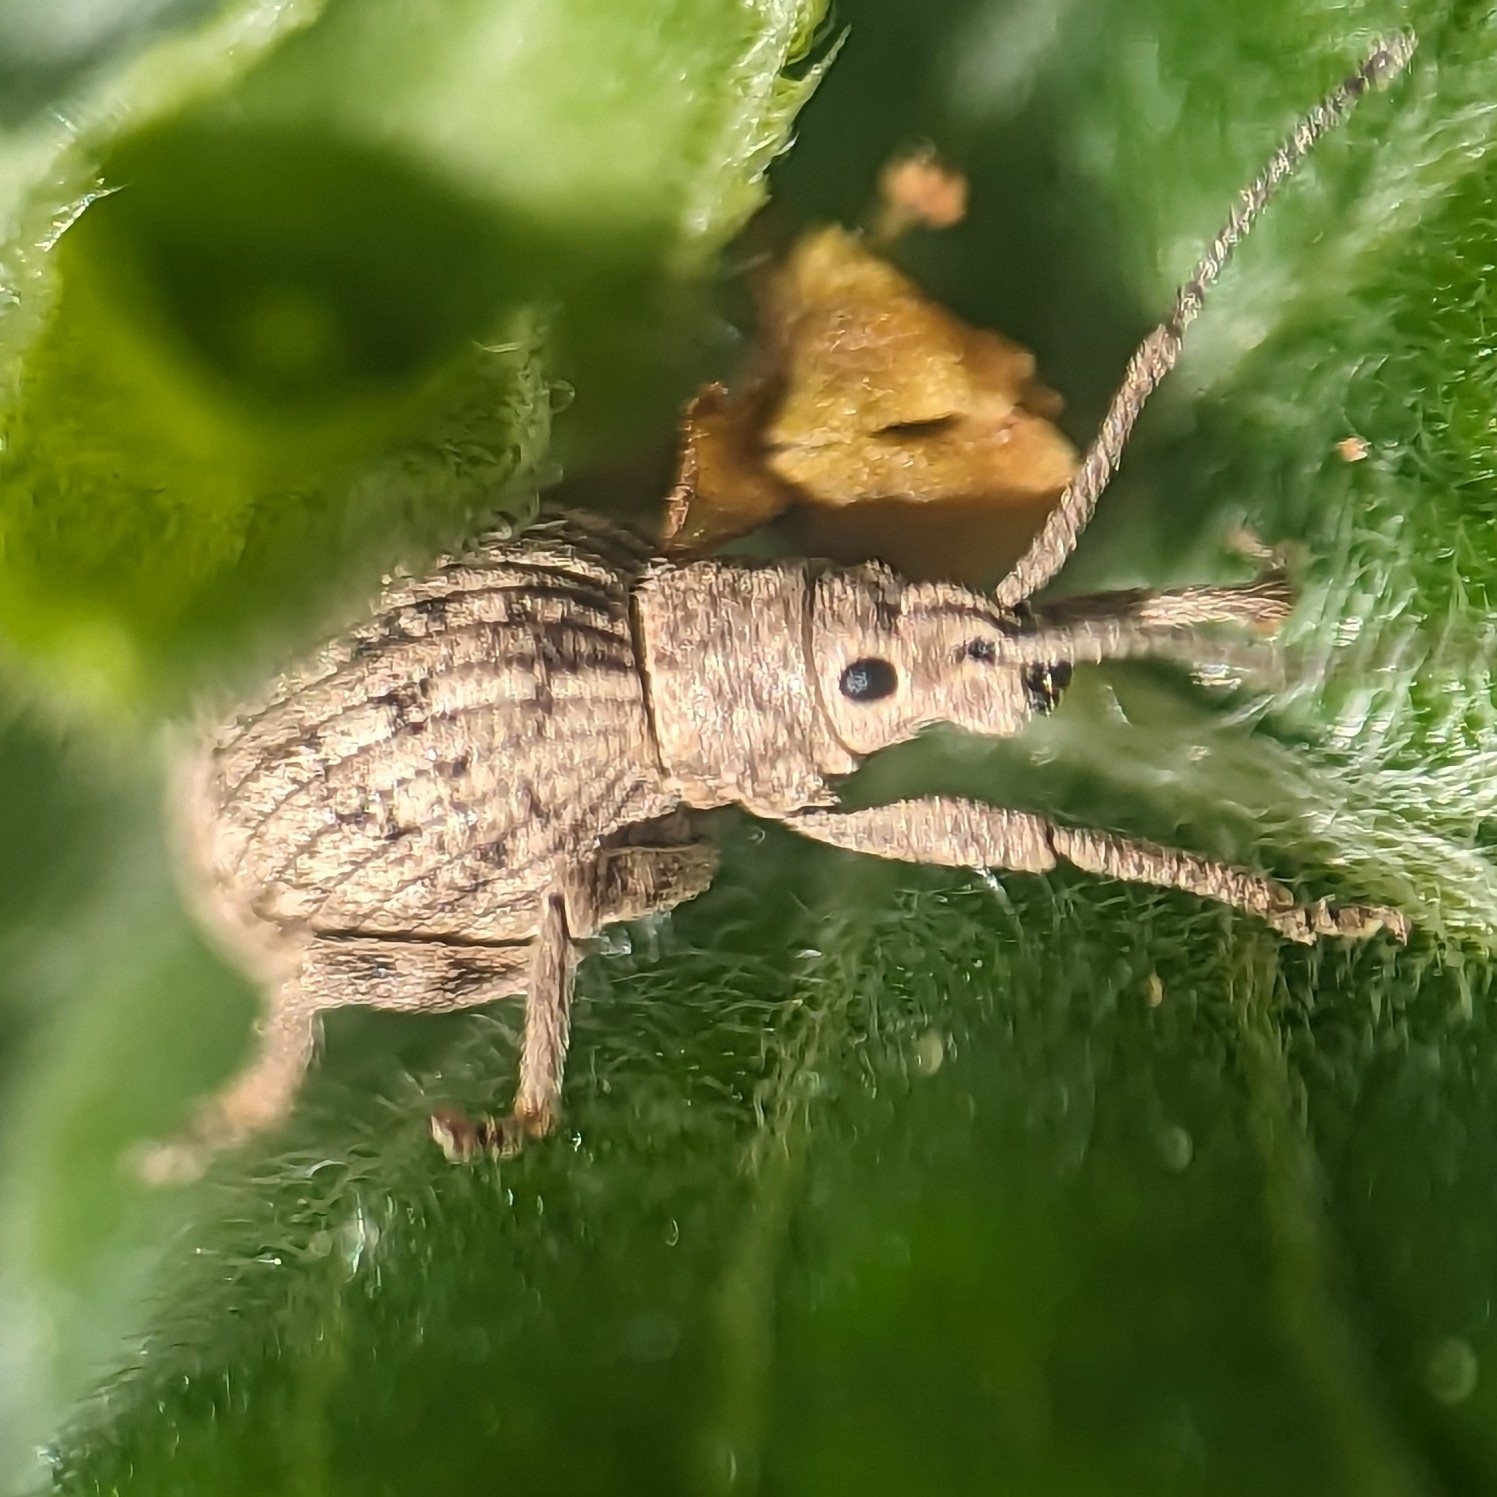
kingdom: Animalia
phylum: Arthropoda
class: Insecta
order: Coleoptera
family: Curculionidae
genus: Ellimenistes
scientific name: Ellimenistes laesicollis
